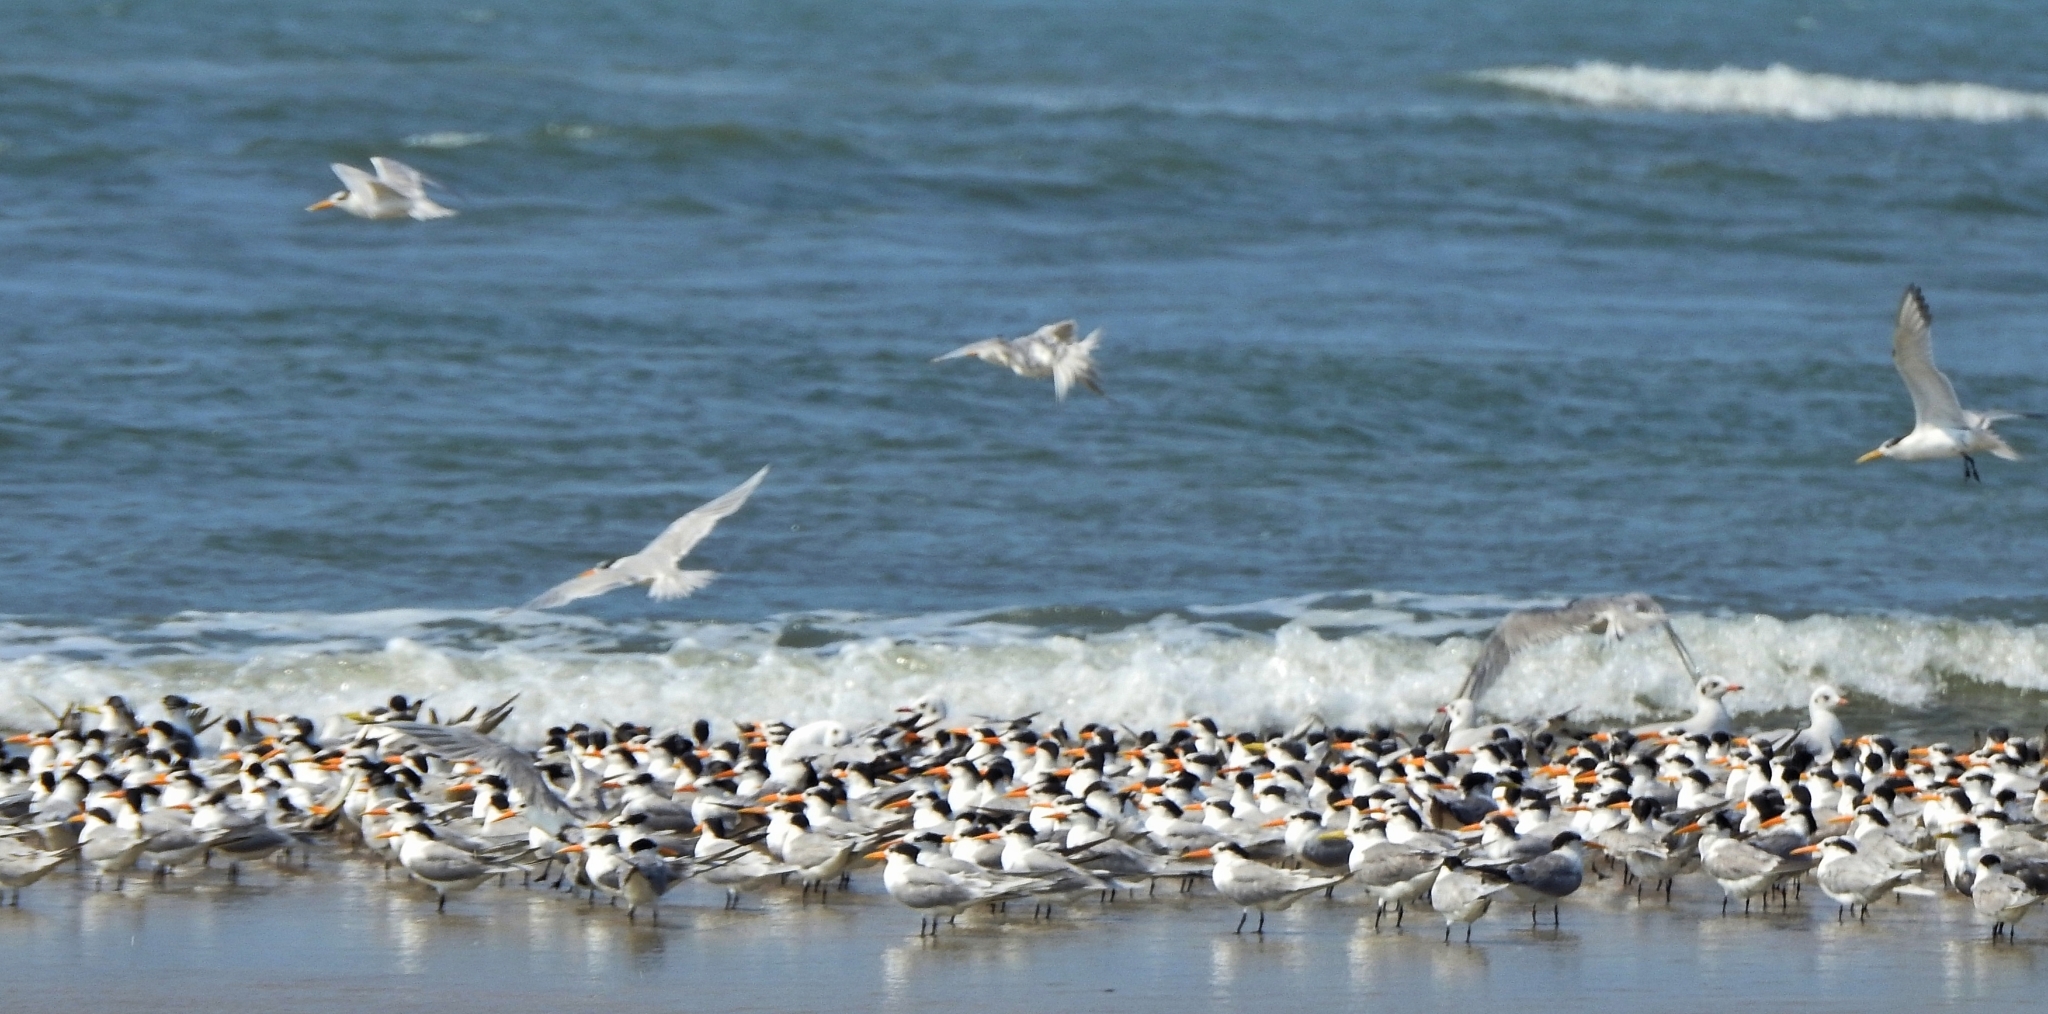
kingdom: Animalia
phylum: Chordata
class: Aves
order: Charadriiformes
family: Laridae
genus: Thalasseus
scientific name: Thalasseus bengalensis
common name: Lesser crested tern
